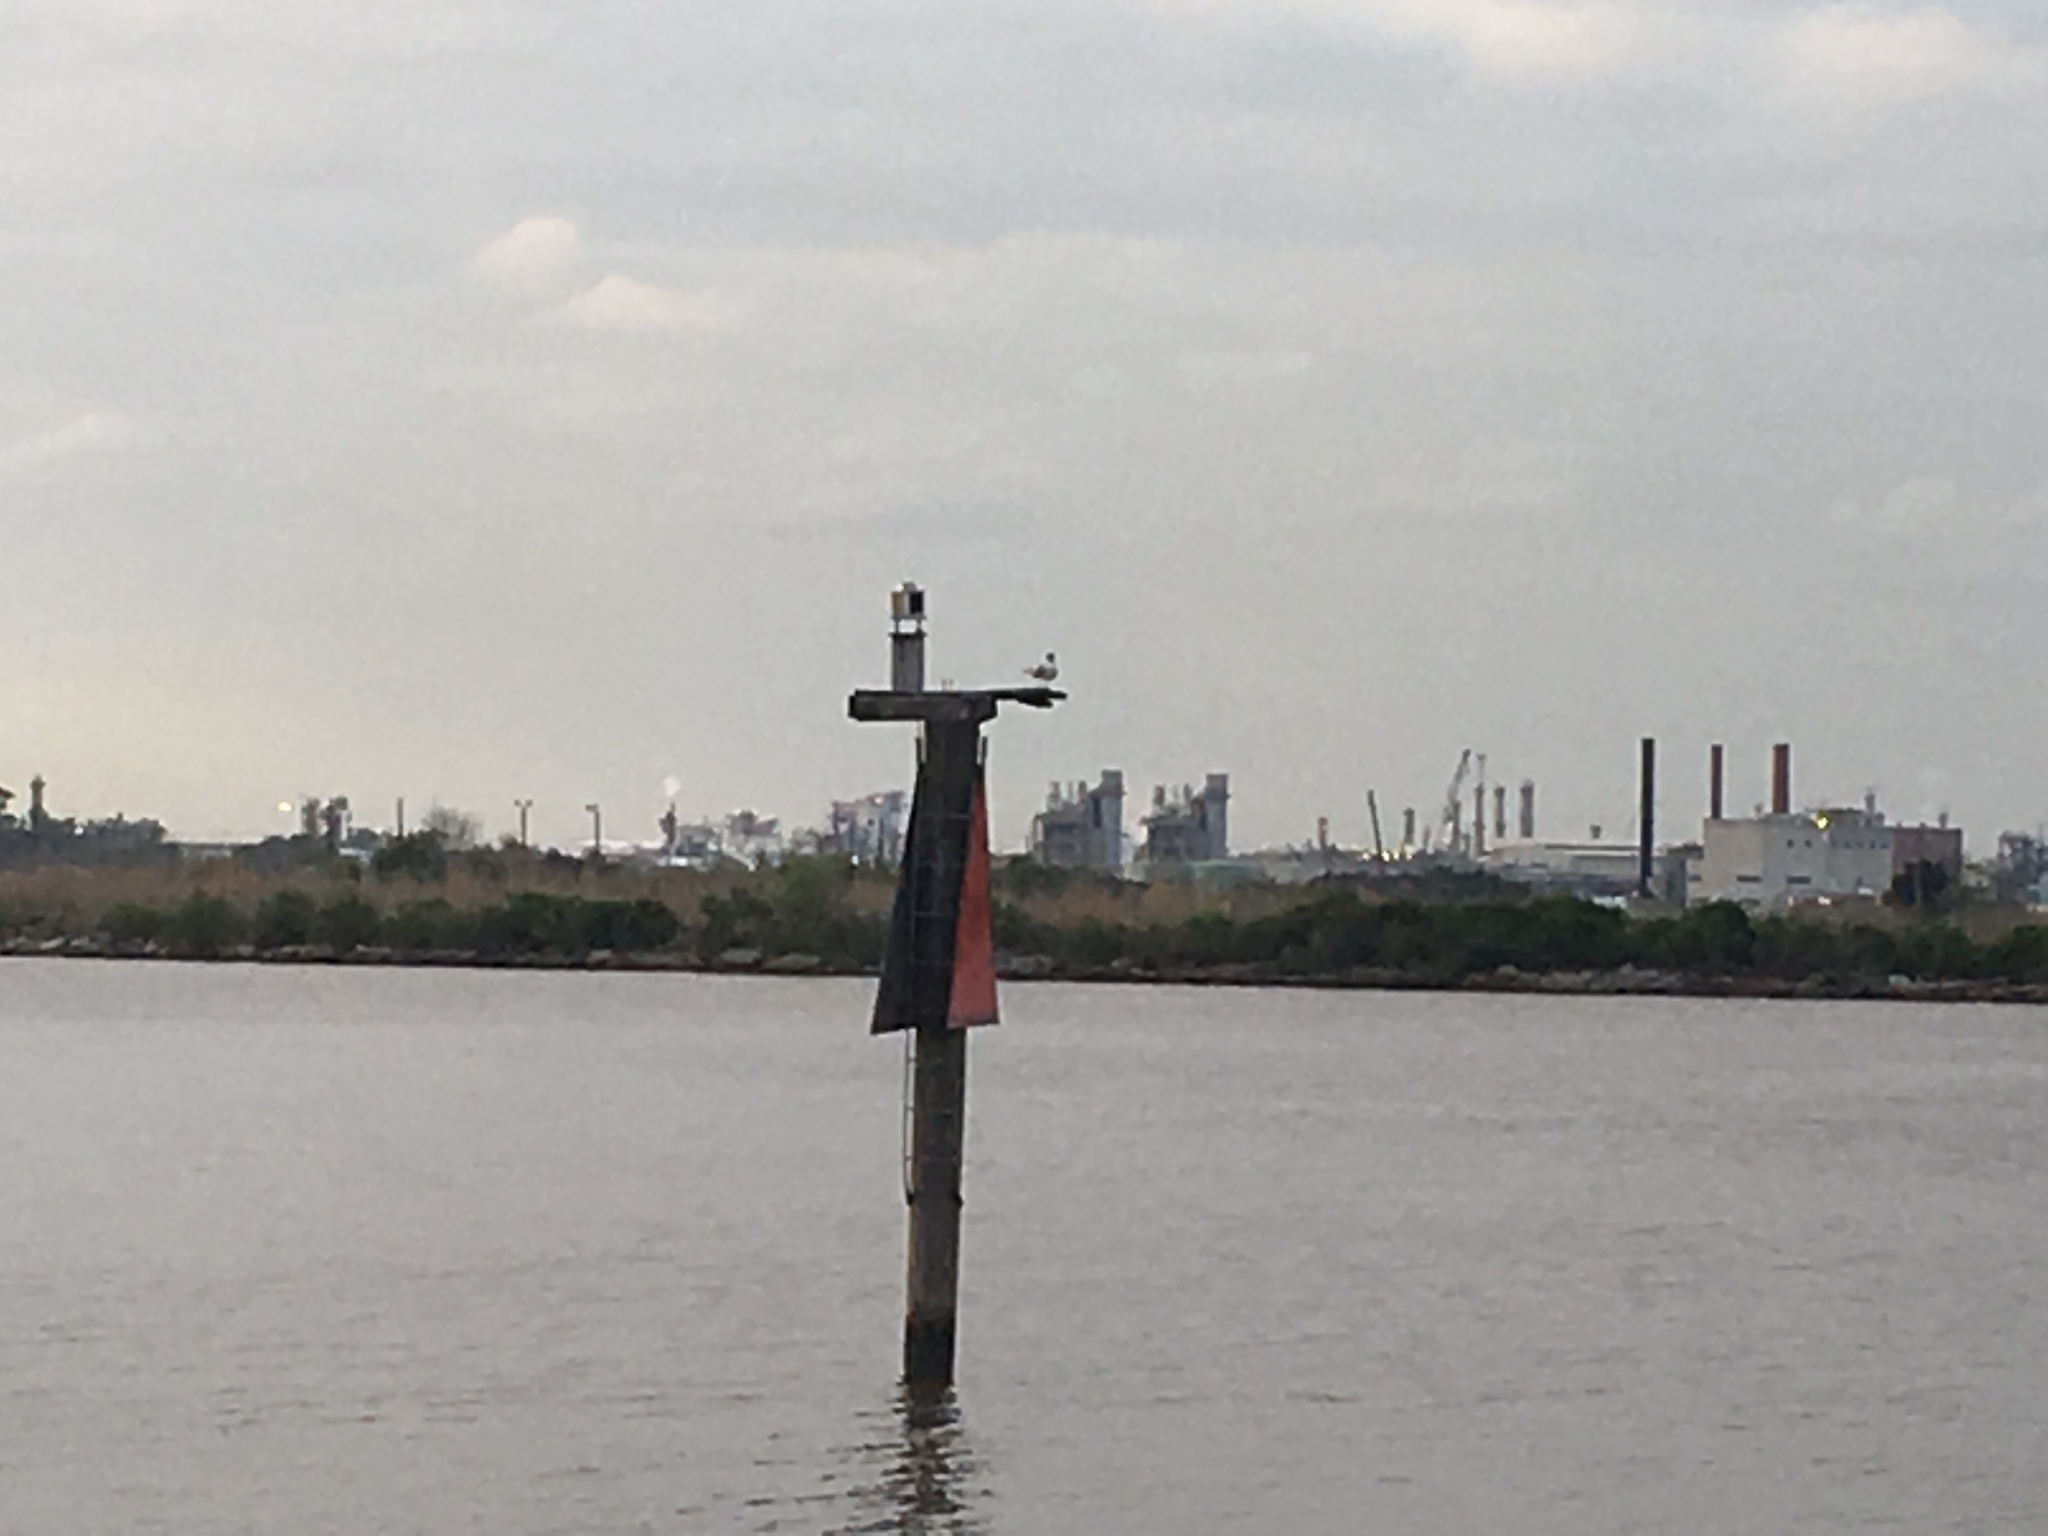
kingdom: Animalia
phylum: Chordata
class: Aves
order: Charadriiformes
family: Laridae
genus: Leucophaeus
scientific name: Leucophaeus atricilla
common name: Laughing gull
